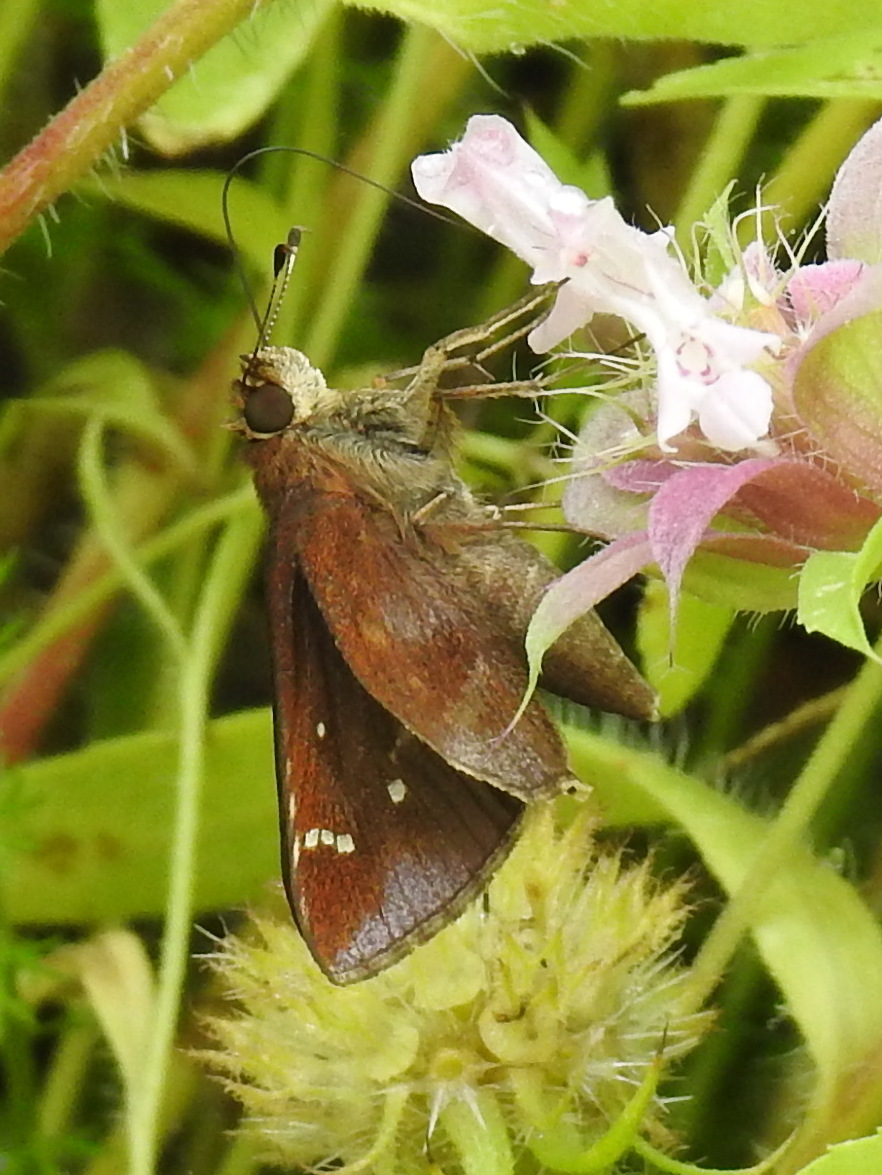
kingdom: Animalia
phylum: Arthropoda
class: Insecta
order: Lepidoptera
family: Hesperiidae
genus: Lerema
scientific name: Lerema accius
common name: Clouded skipper
